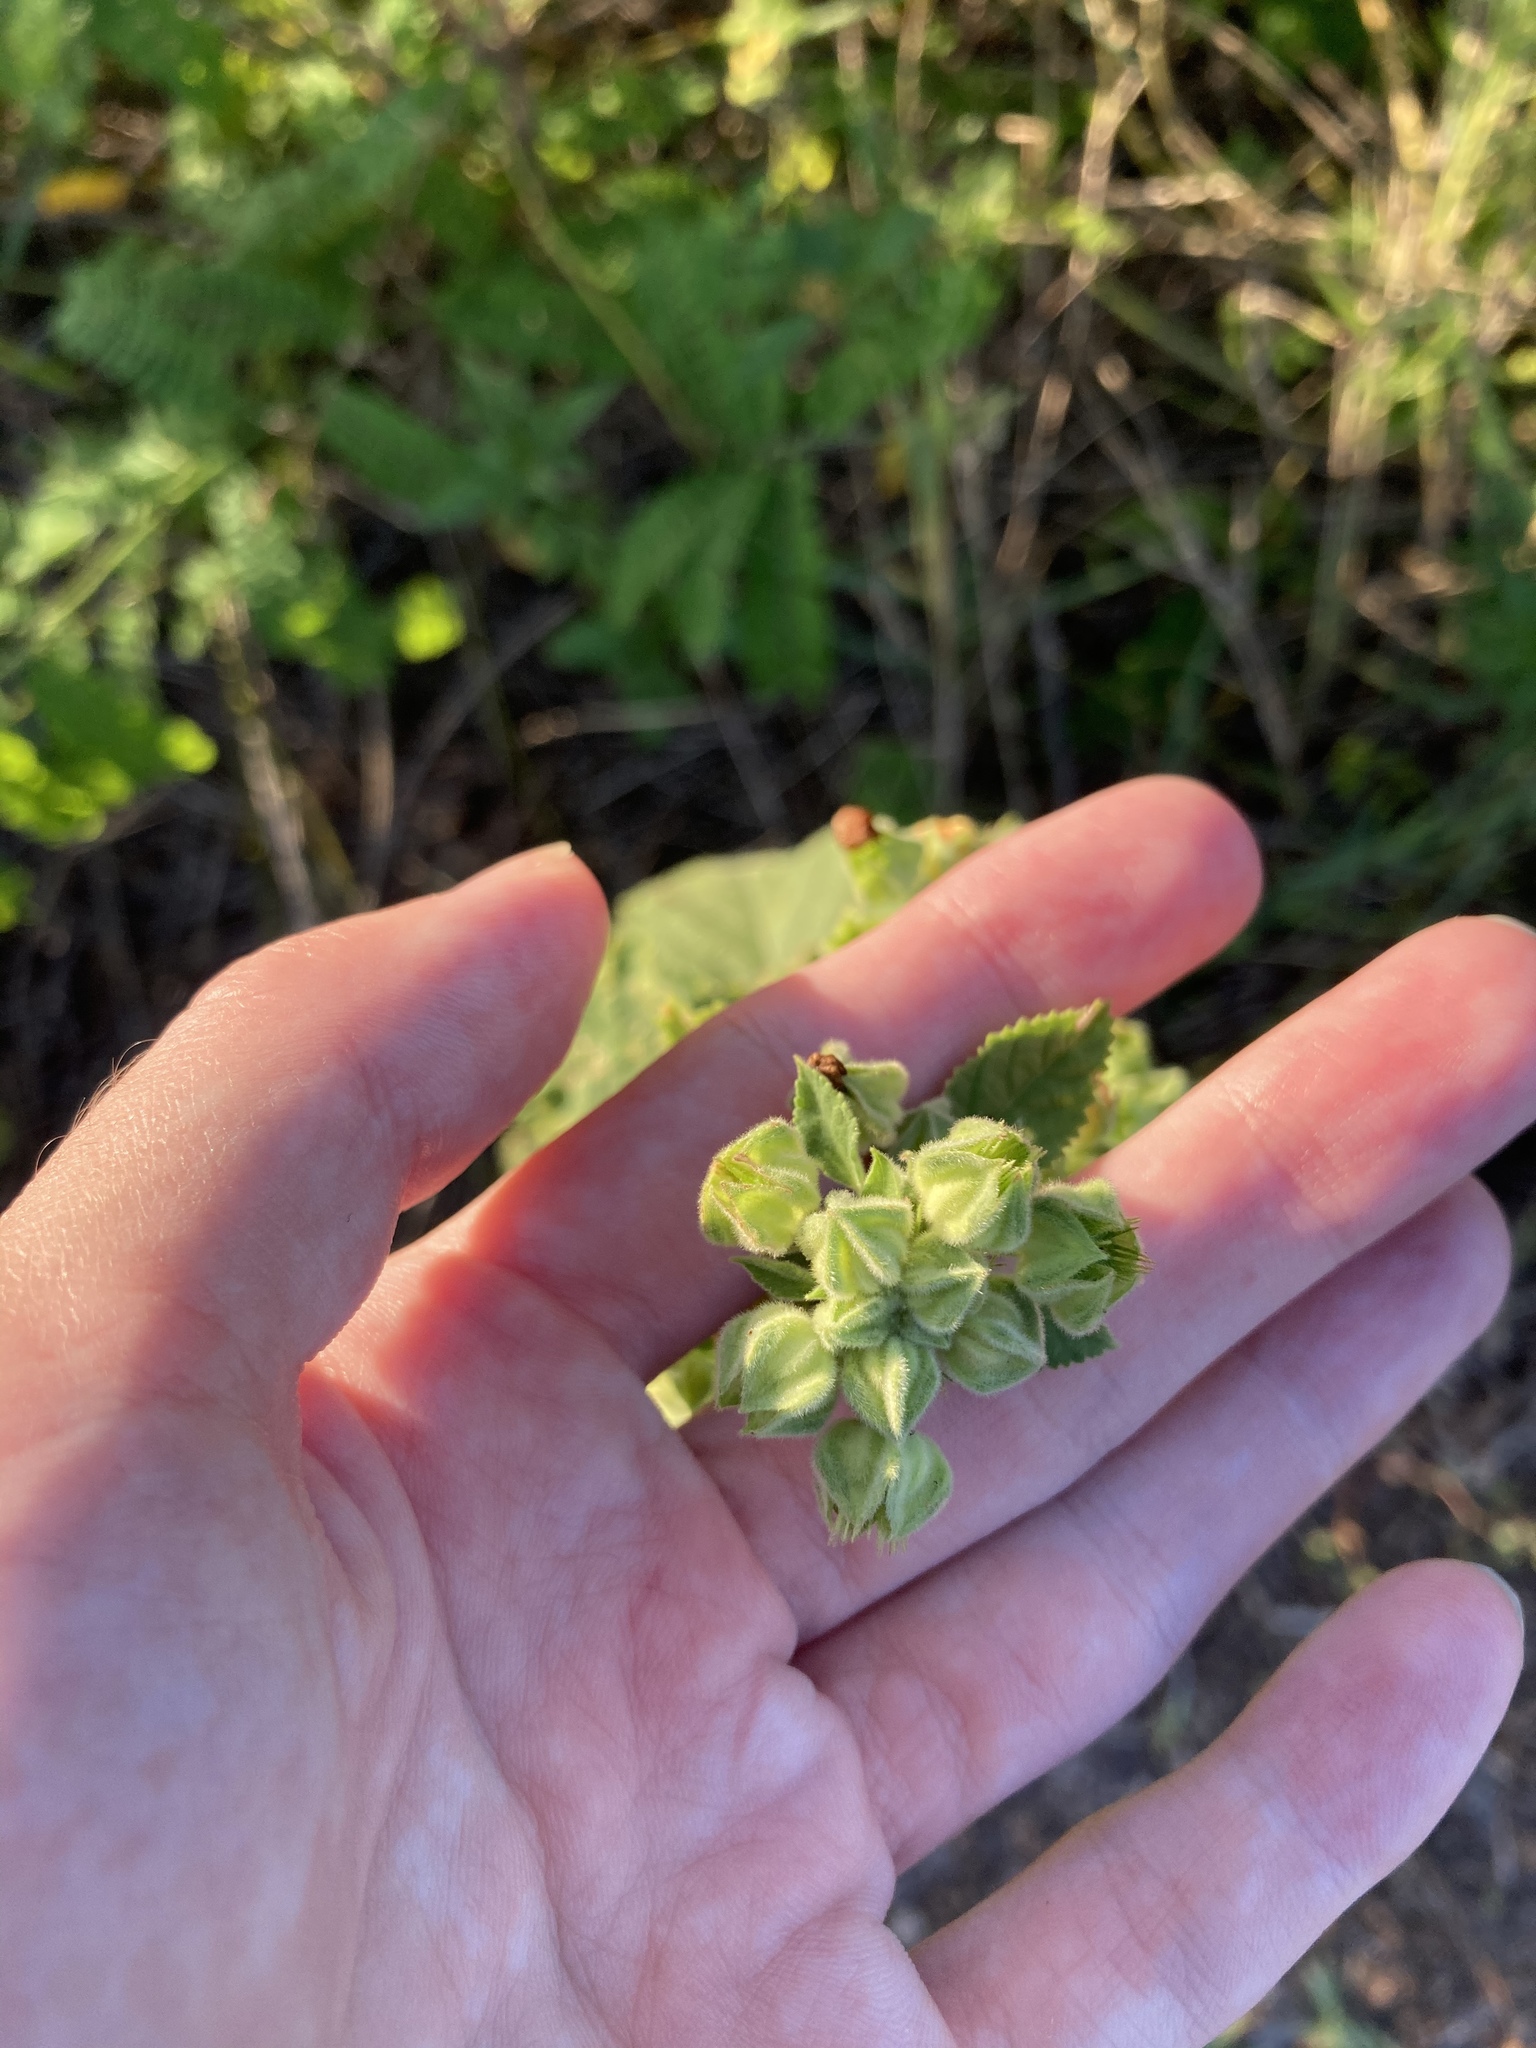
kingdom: Plantae
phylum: Tracheophyta
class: Magnoliopsida
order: Malvales
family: Malvaceae
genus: Sida
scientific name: Sida cordifolia
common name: Ilima
